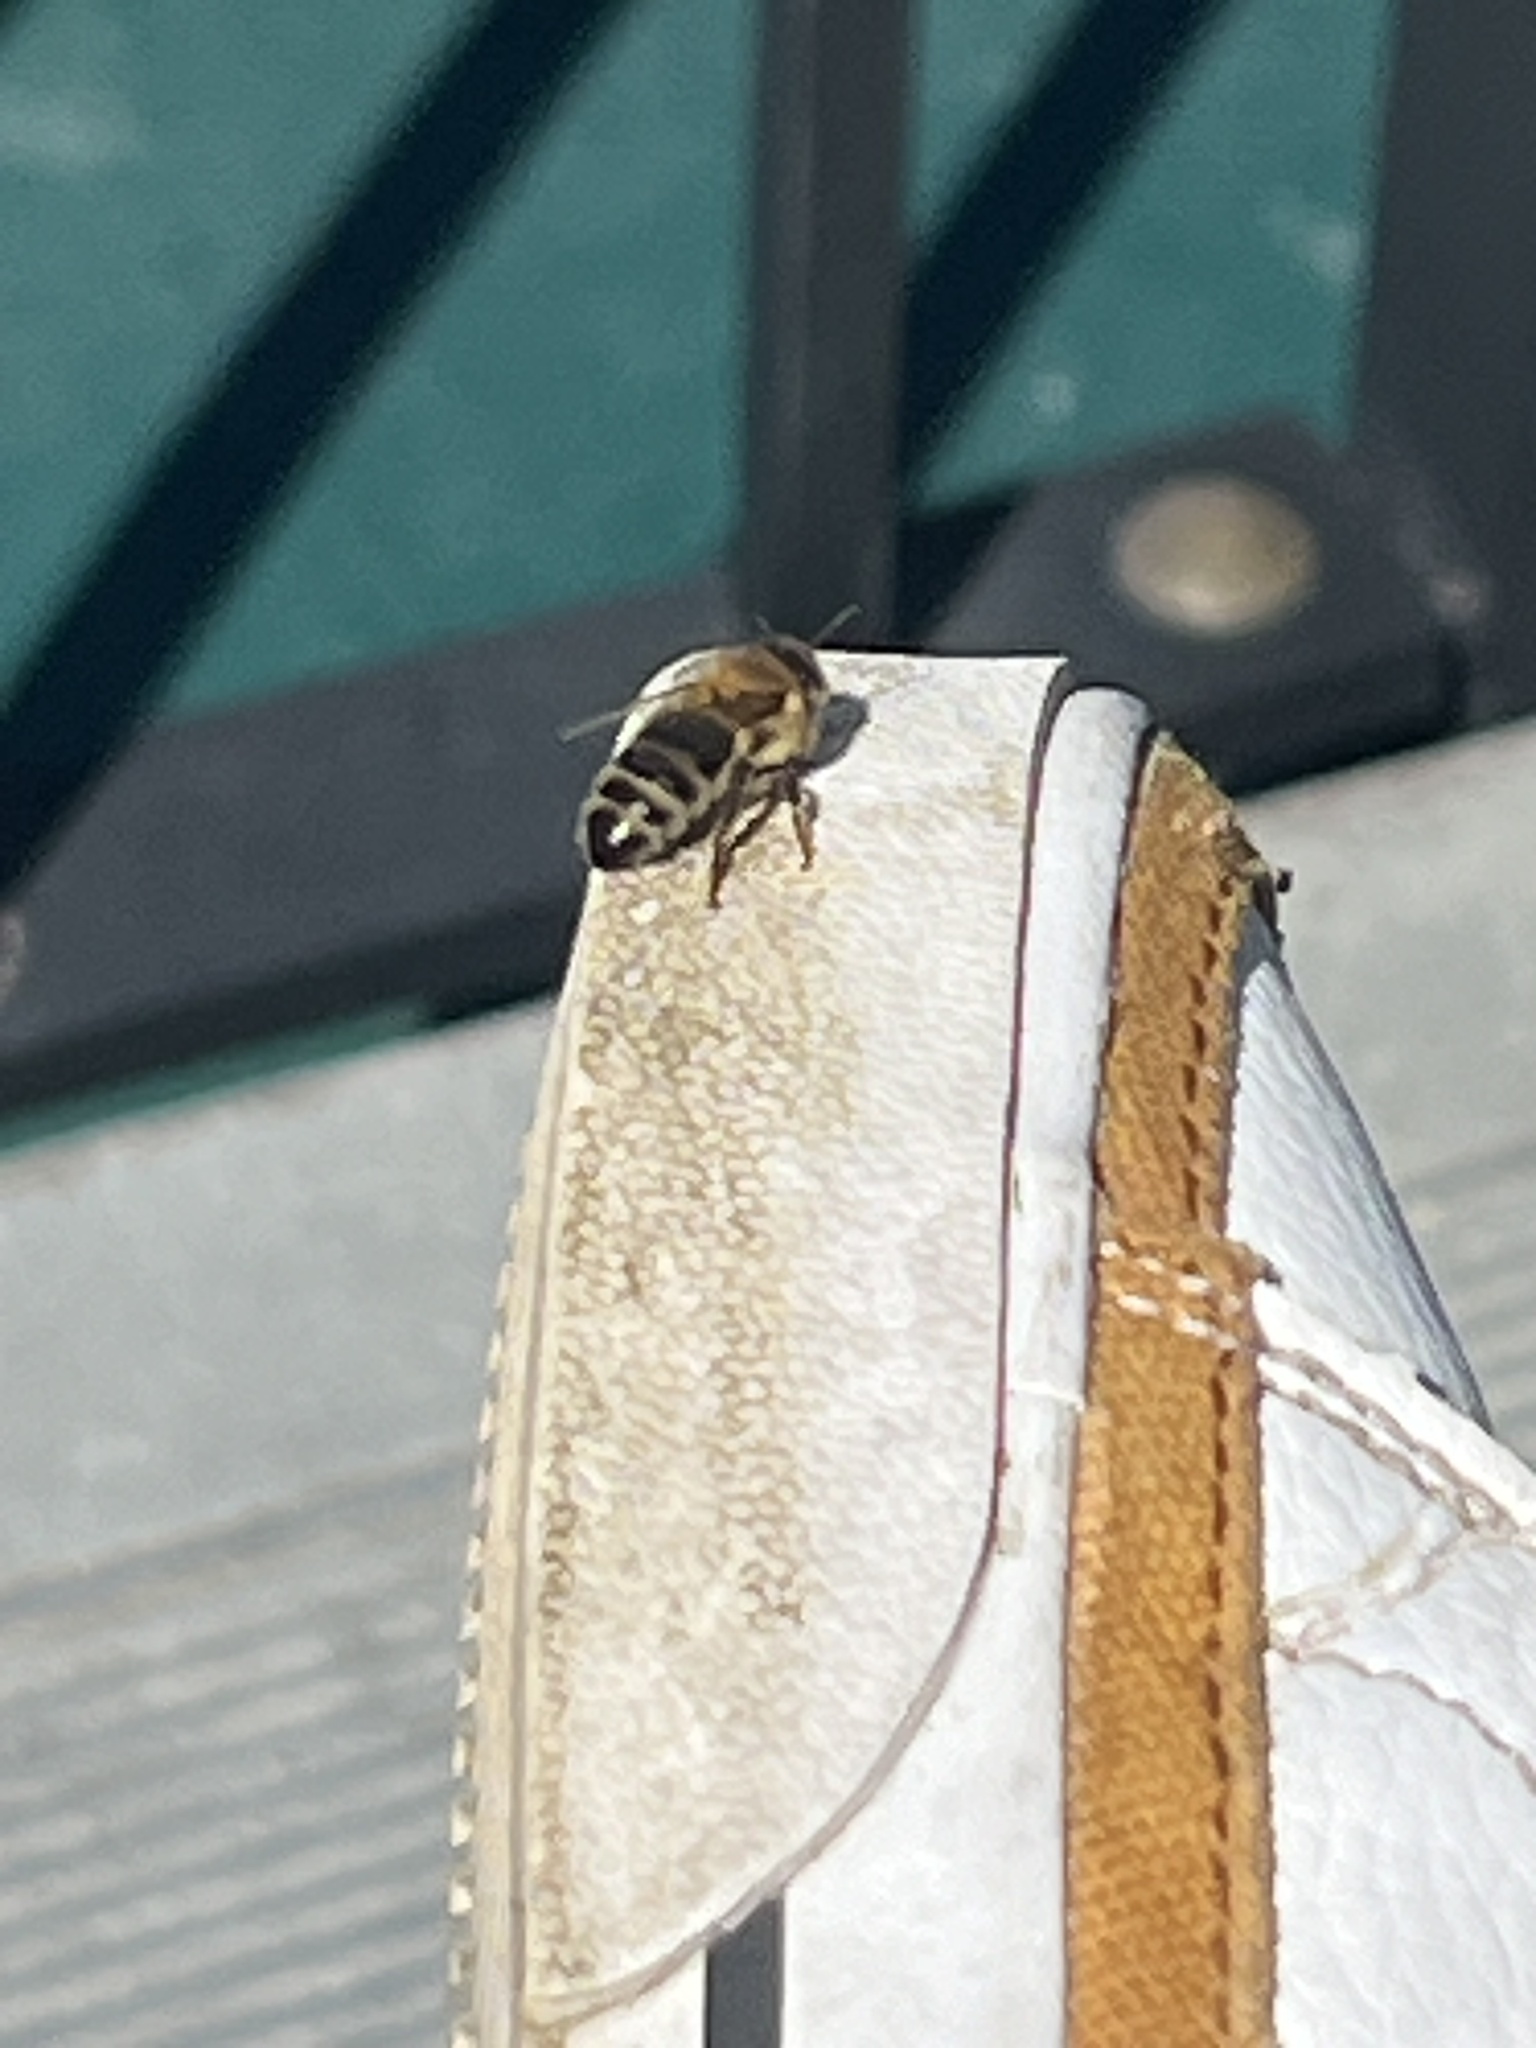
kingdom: Animalia
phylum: Arthropoda
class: Insecta
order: Hymenoptera
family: Apidae
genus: Apis
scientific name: Apis mellifera
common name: Honey bee
